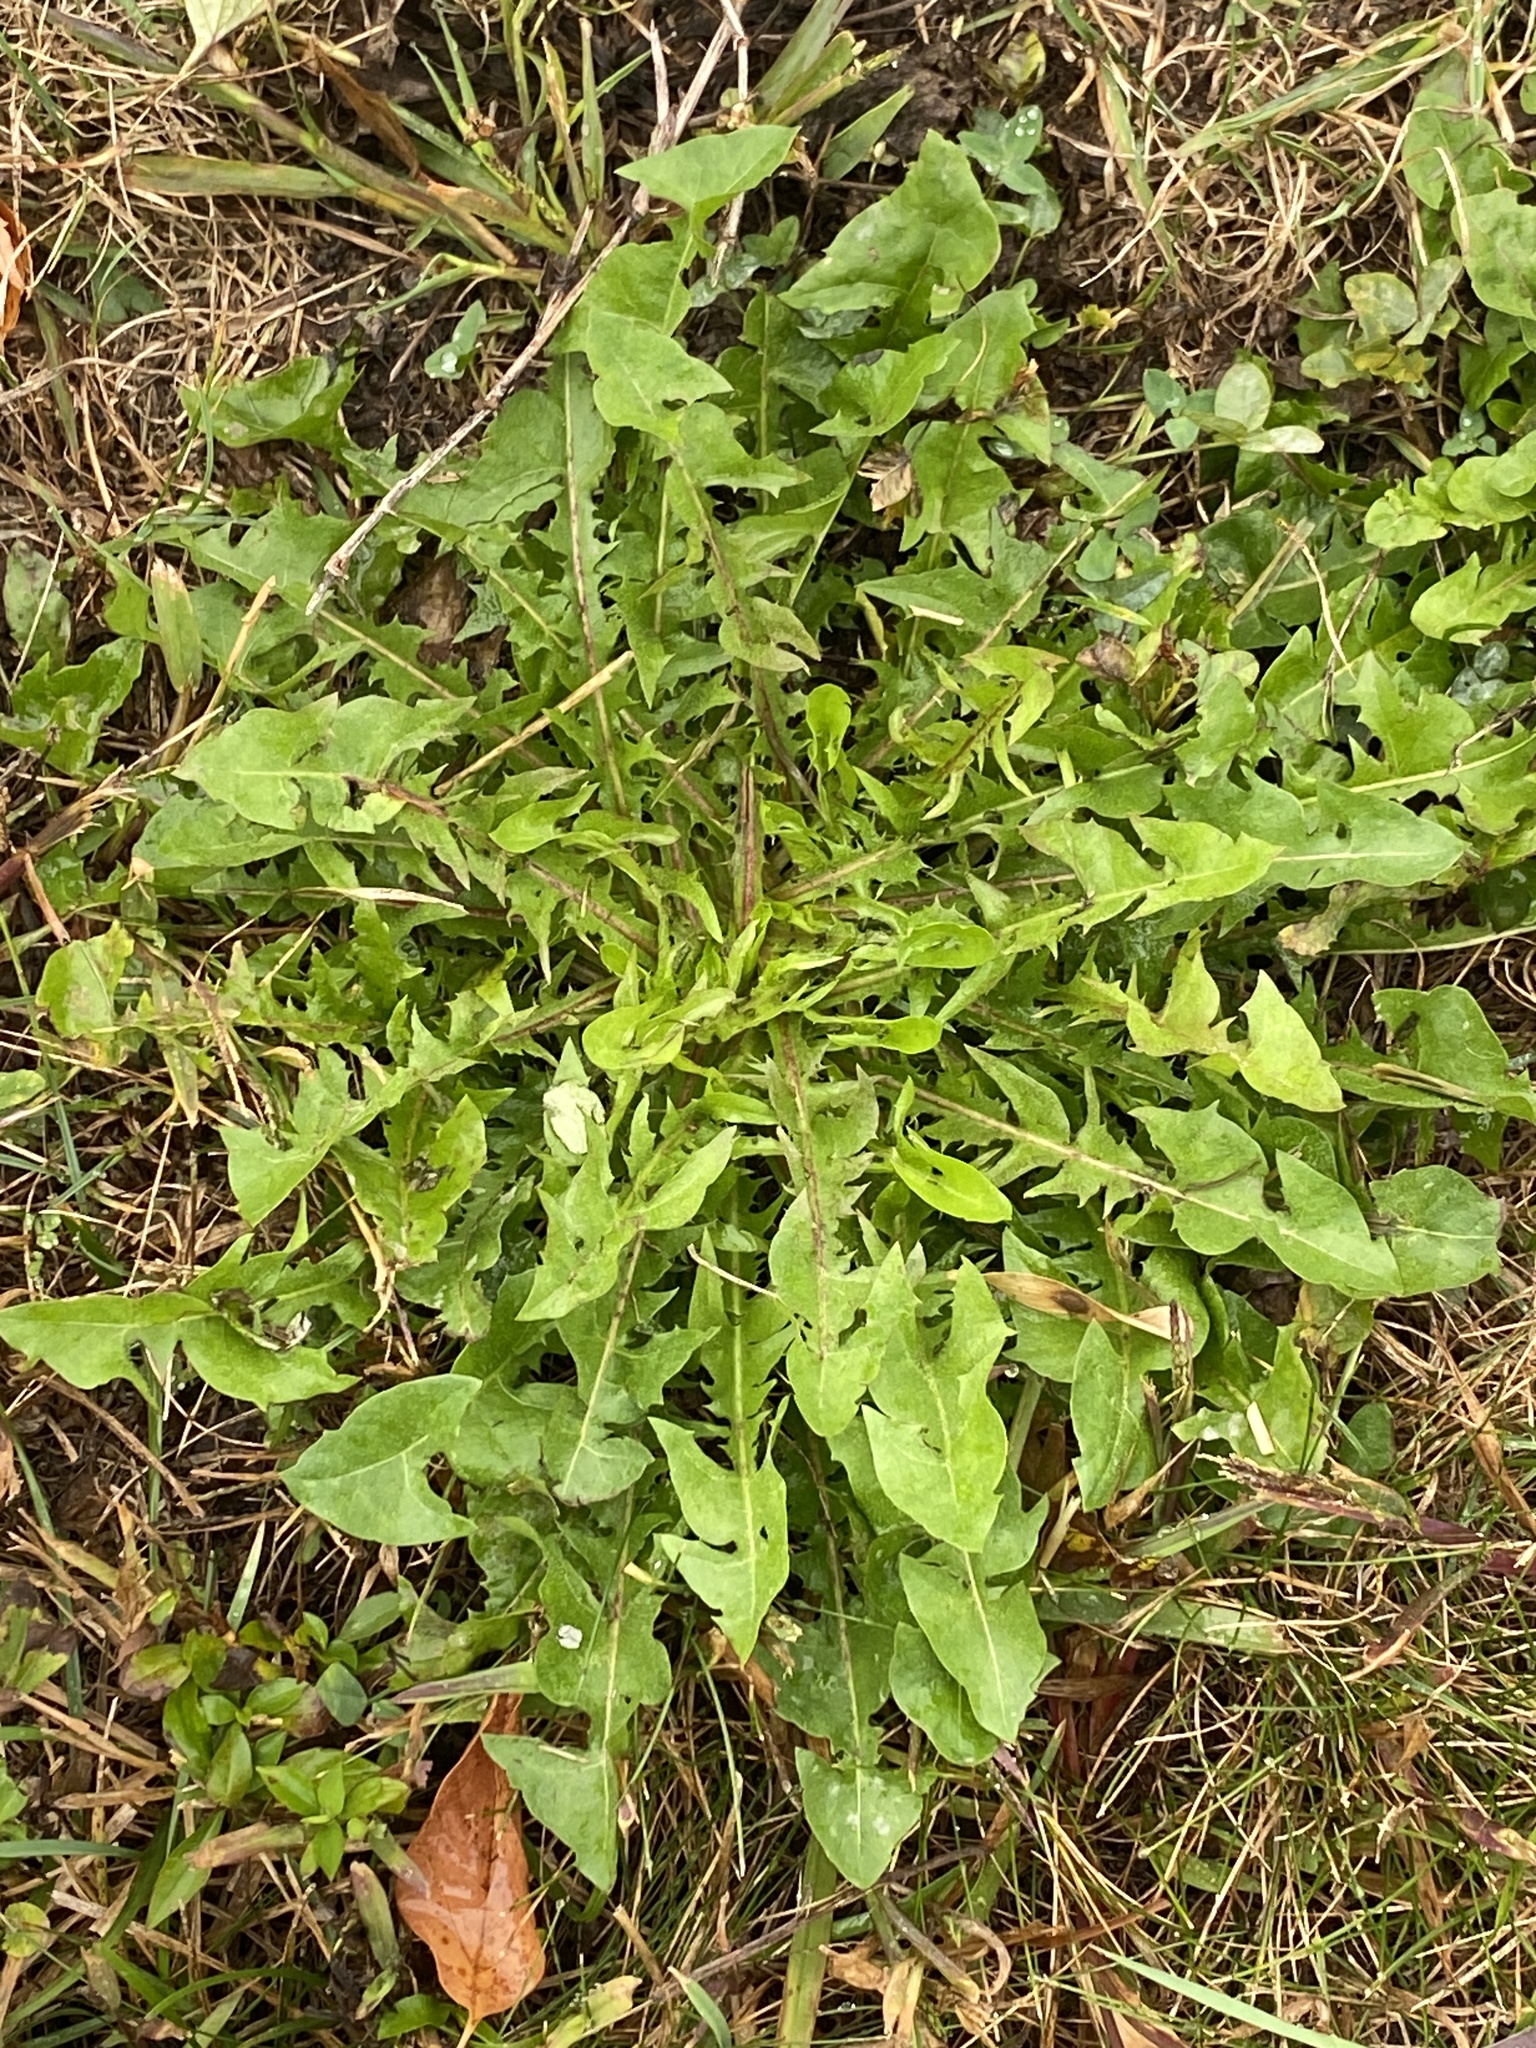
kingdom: Plantae
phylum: Tracheophyta
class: Magnoliopsida
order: Asterales
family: Asteraceae
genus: Taraxacum
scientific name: Taraxacum
